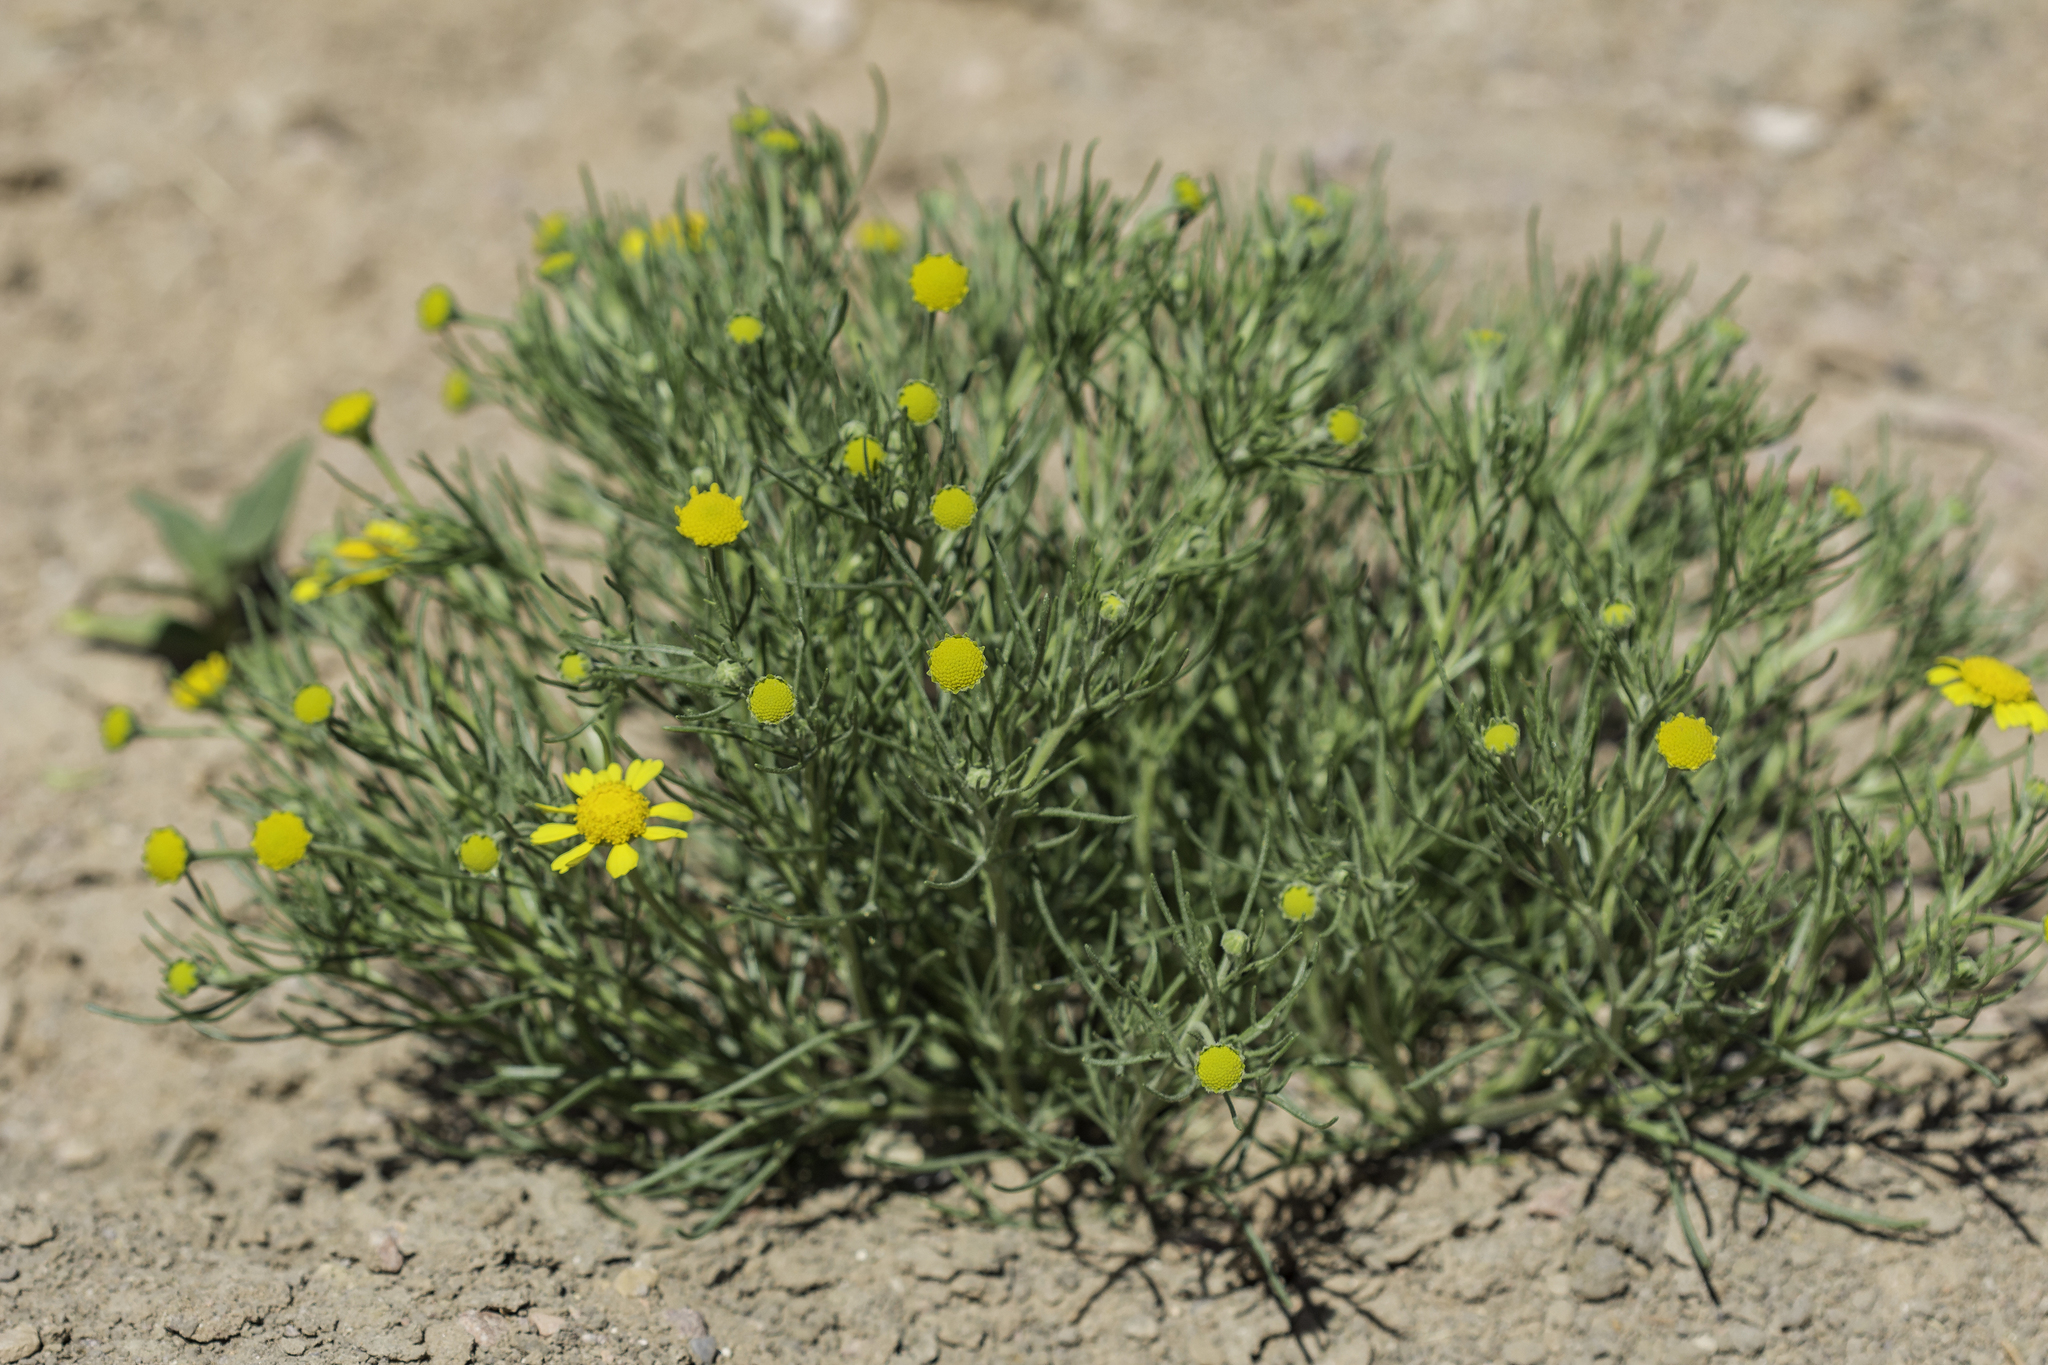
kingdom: Plantae
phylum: Tracheophyta
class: Magnoliopsida
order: Asterales
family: Asteraceae
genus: Hymenoxys
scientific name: Hymenoxys odorata
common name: Bitter rubberweed
